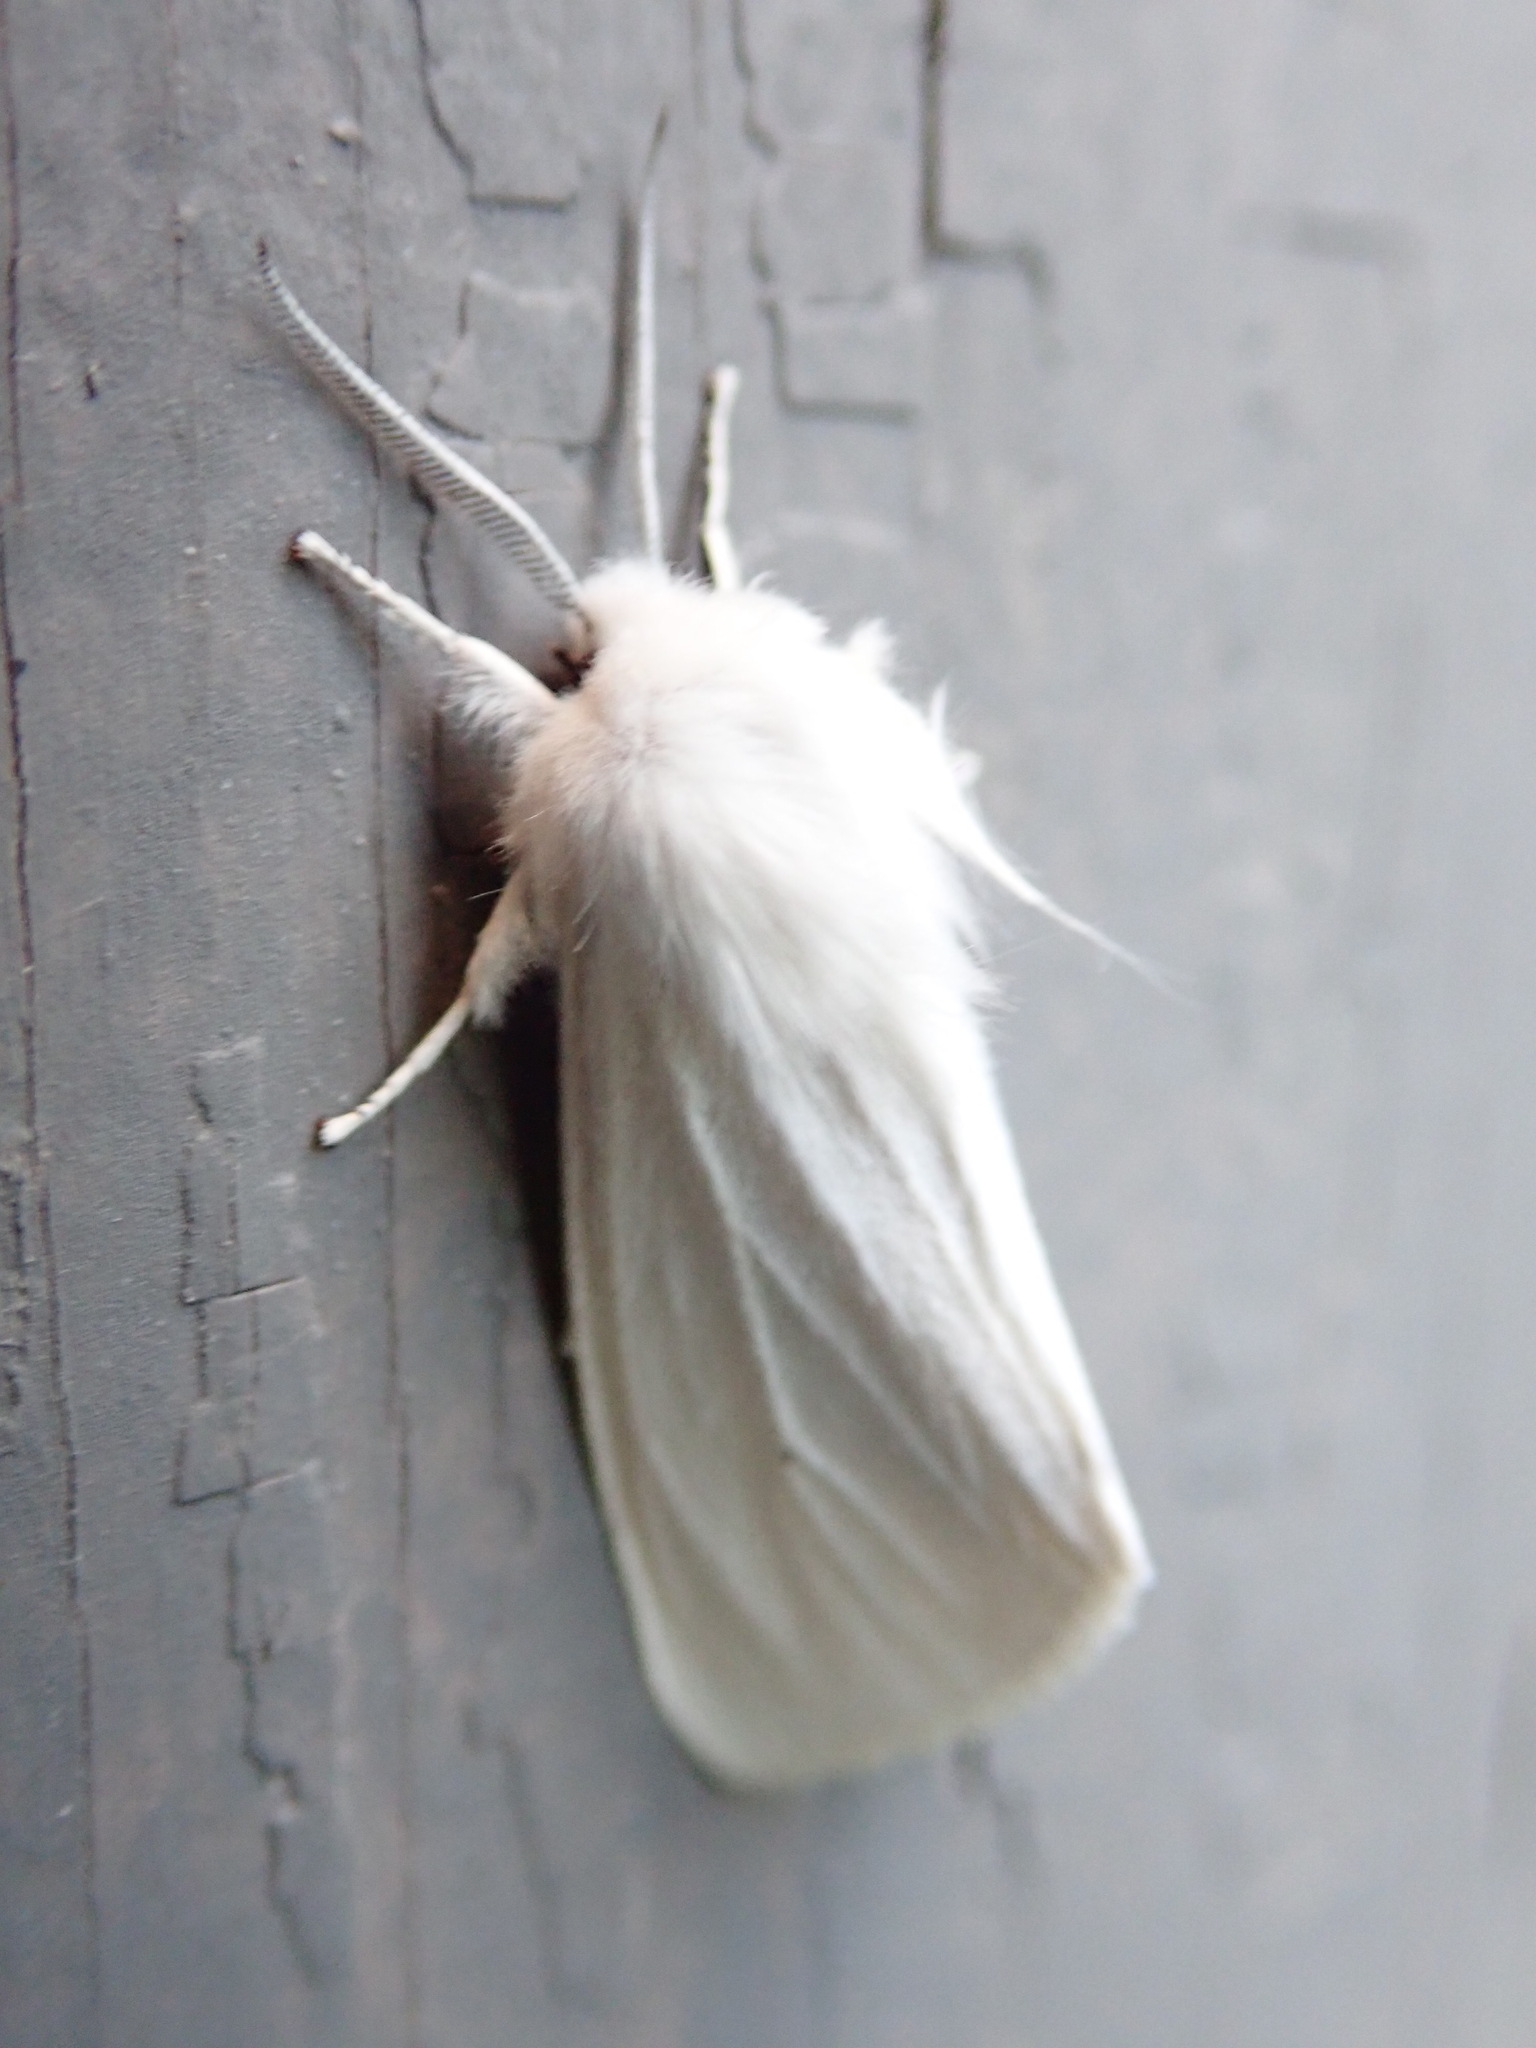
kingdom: Animalia
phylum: Arthropoda
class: Insecta
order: Lepidoptera
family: Erebidae
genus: Spilosoma
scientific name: Spilosoma virginica
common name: Virginia tiger moth
